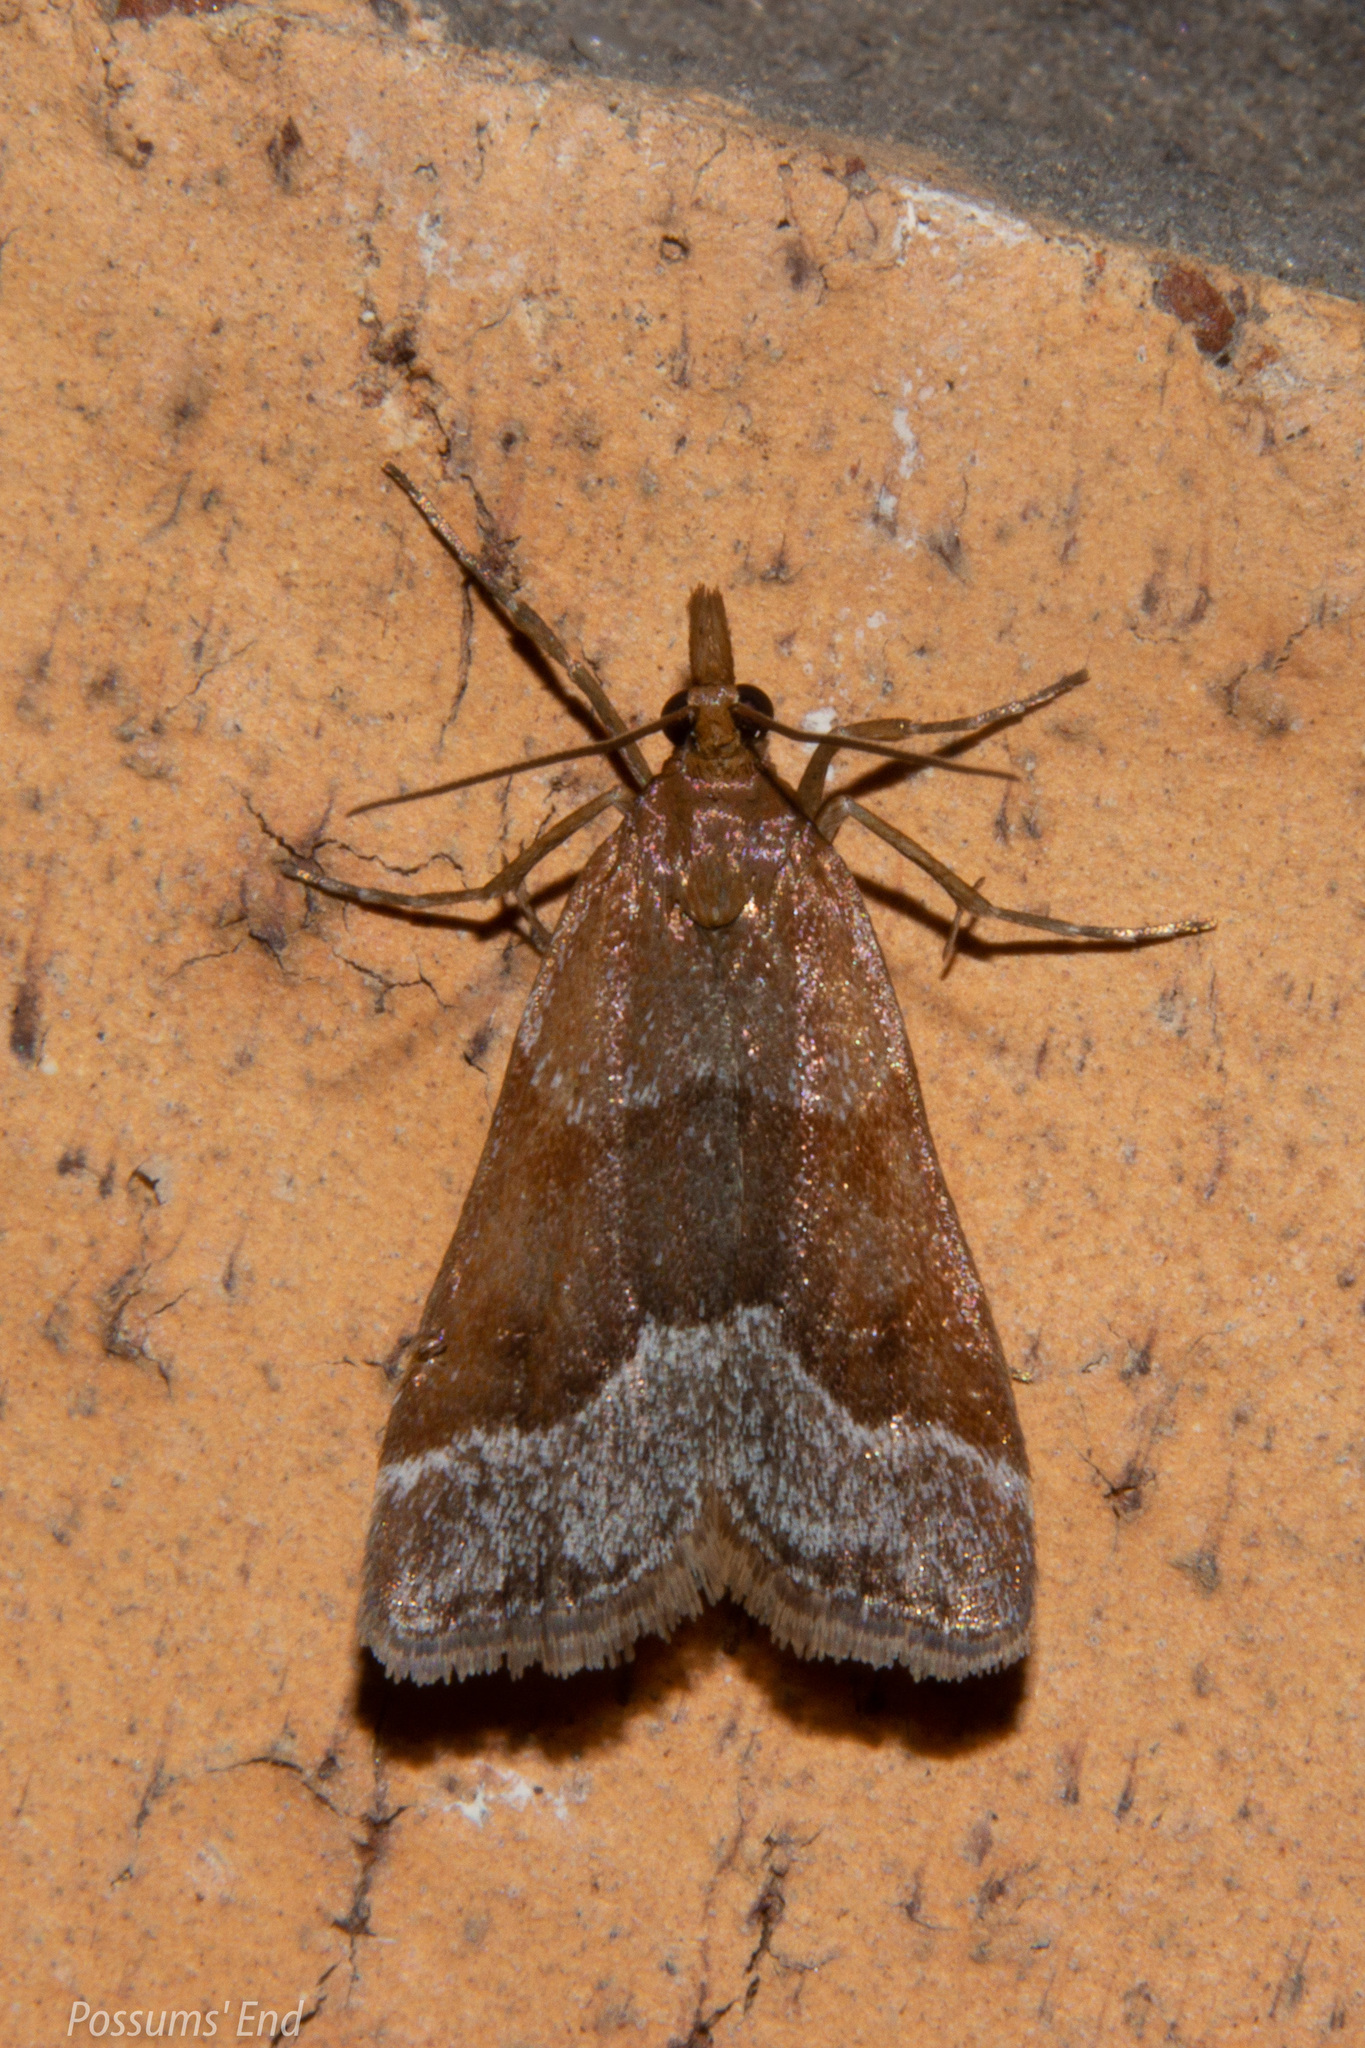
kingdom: Animalia
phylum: Arthropoda
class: Insecta
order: Lepidoptera
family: Crambidae
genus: Eudonia
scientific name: Eudonia feredayi
